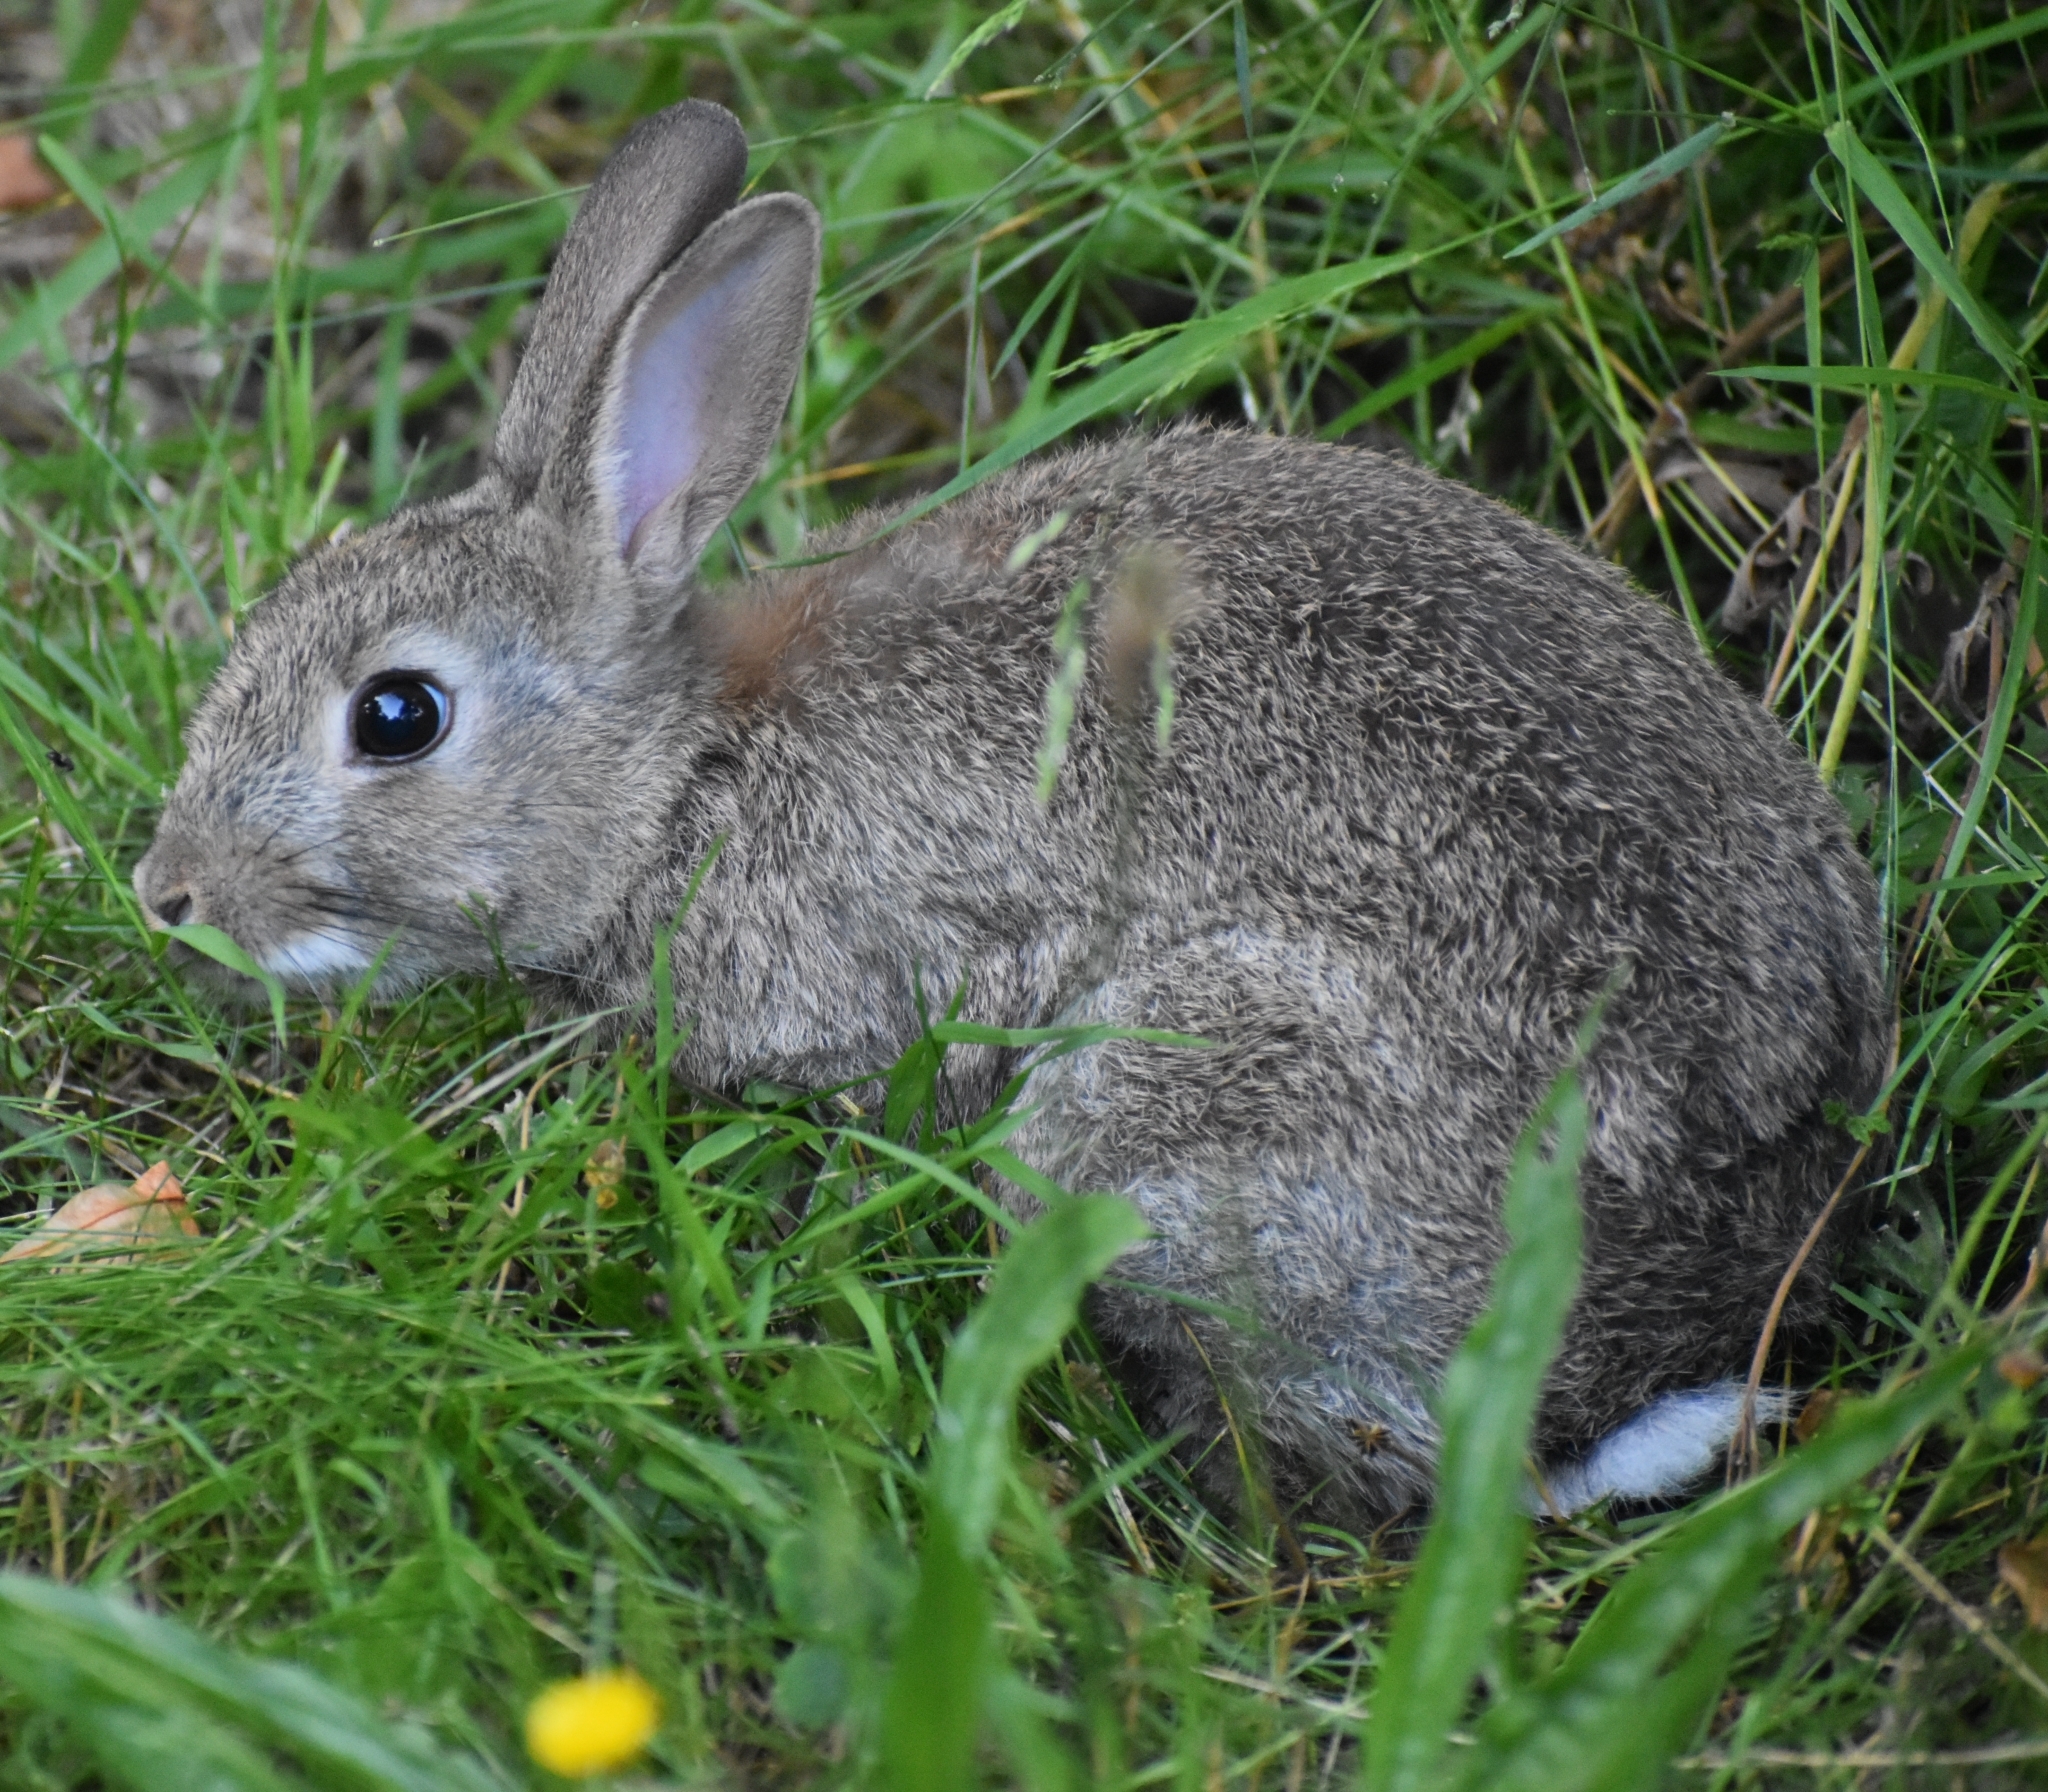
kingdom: Animalia
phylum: Chordata
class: Mammalia
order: Lagomorpha
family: Leporidae
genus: Oryctolagus
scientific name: Oryctolagus cuniculus
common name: European rabbit
